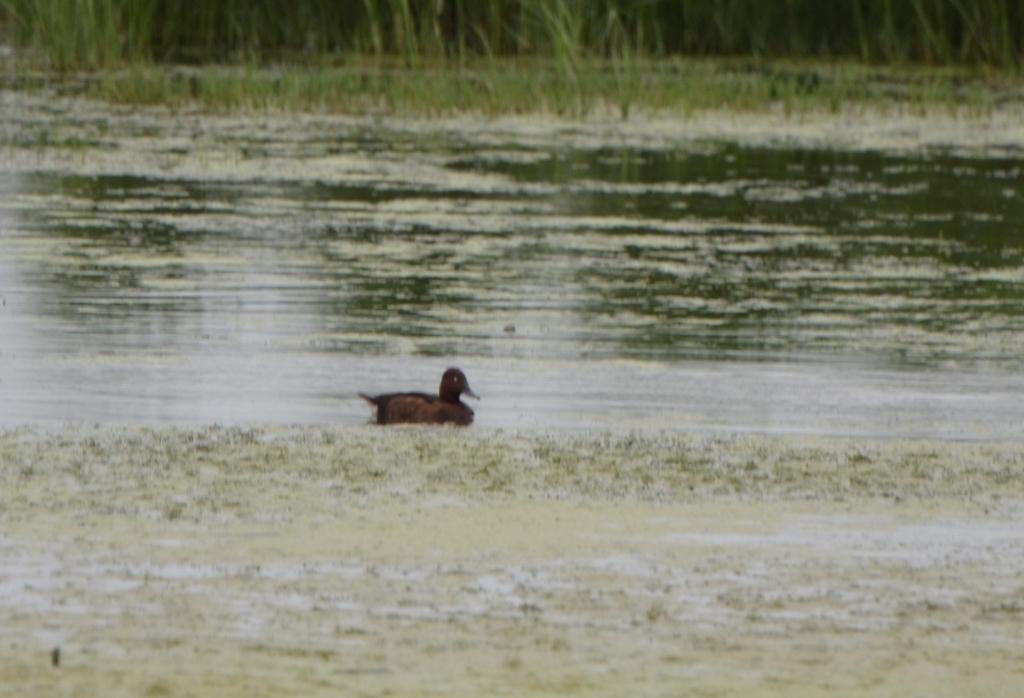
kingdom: Animalia
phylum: Chordata
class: Aves
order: Anseriformes
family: Anatidae
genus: Aythya
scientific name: Aythya nyroca
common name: Ferruginous duck
